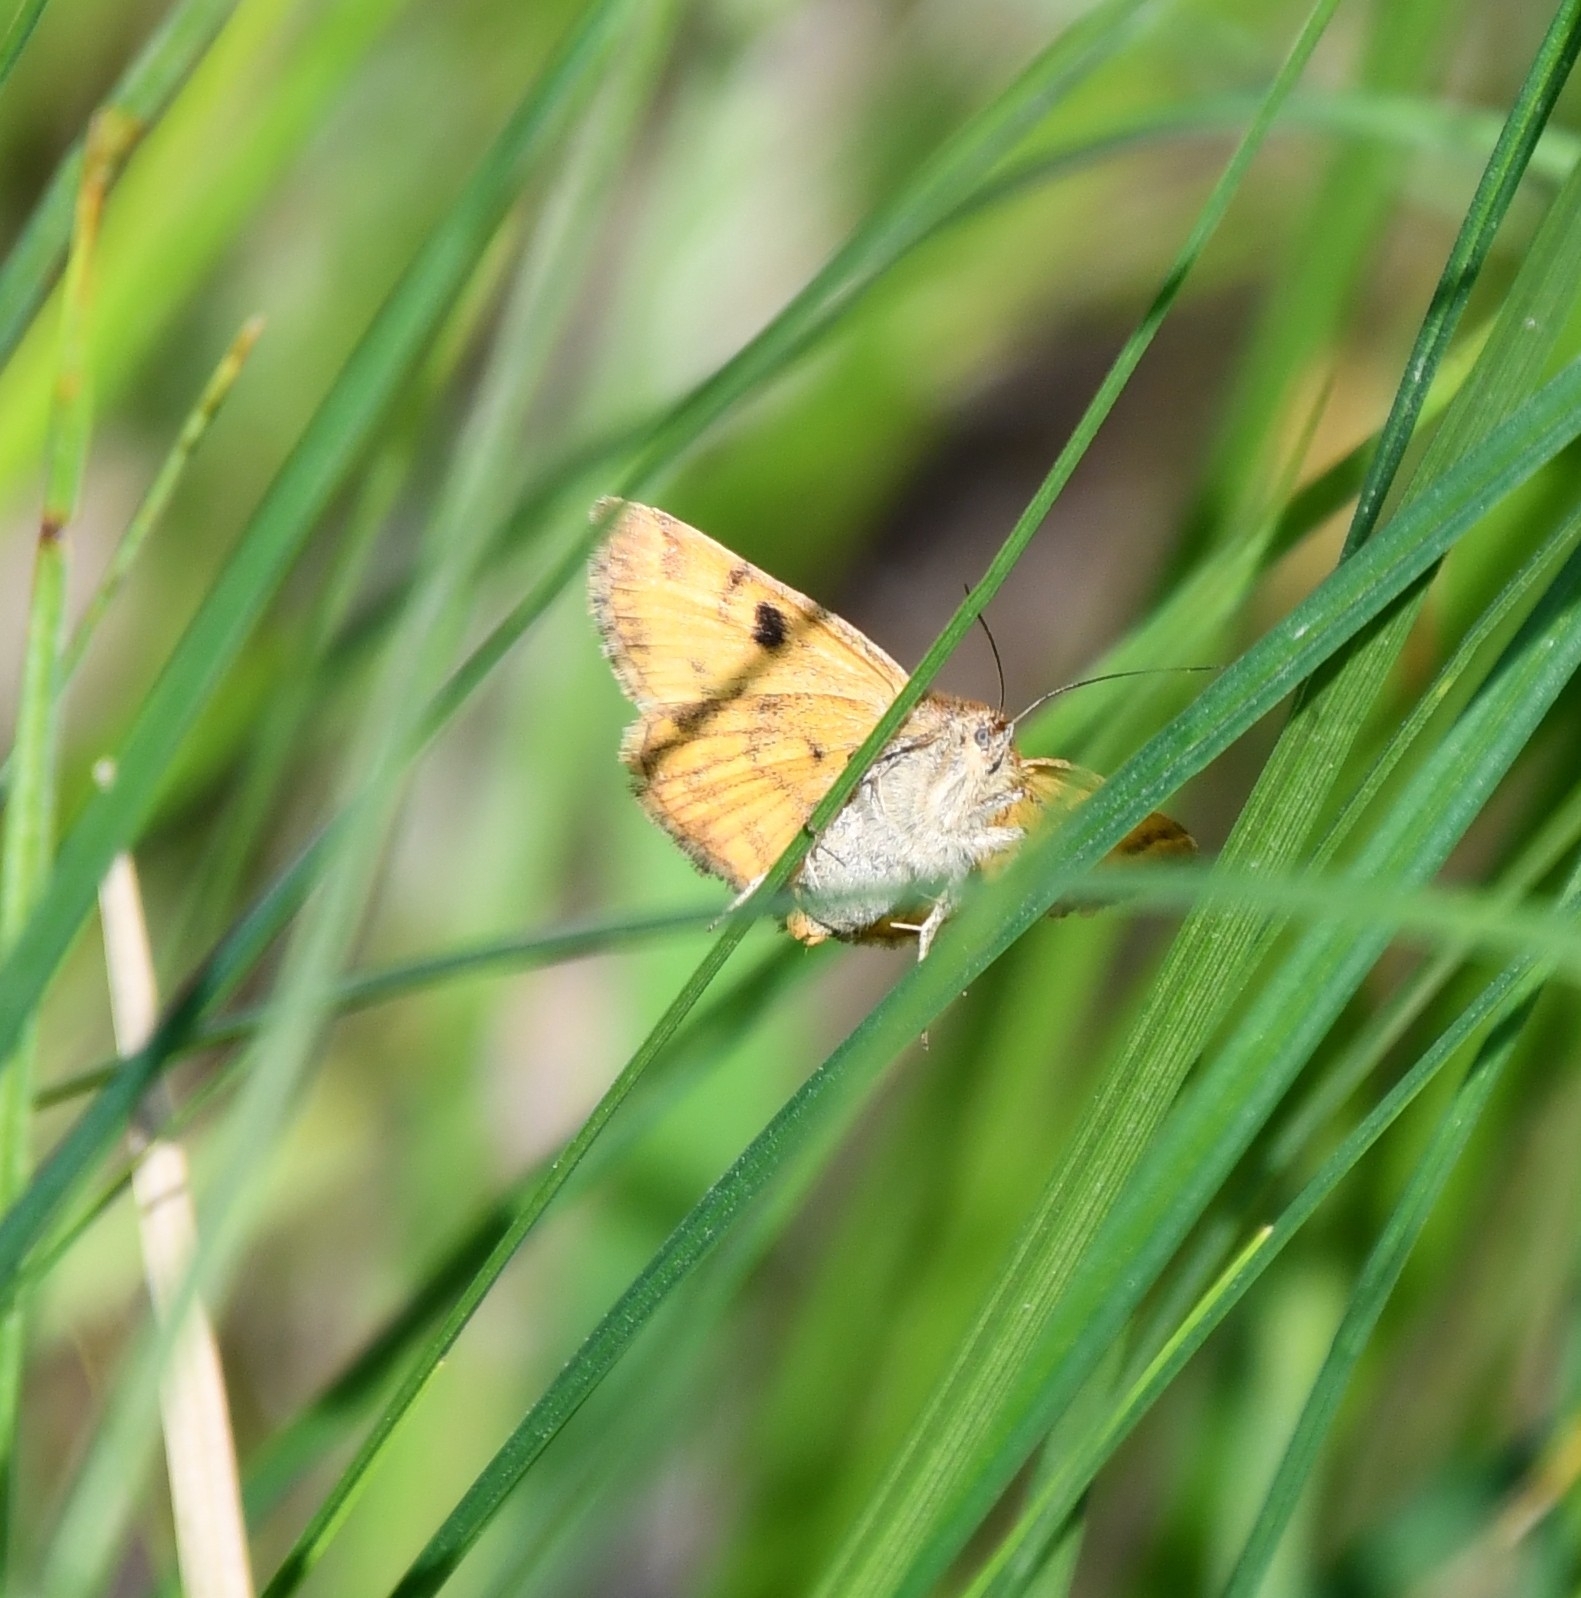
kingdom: Animalia
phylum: Arthropoda
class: Insecta
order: Lepidoptera
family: Erebidae
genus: Euclidia
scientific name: Euclidia glyphica
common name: Burnet companion
